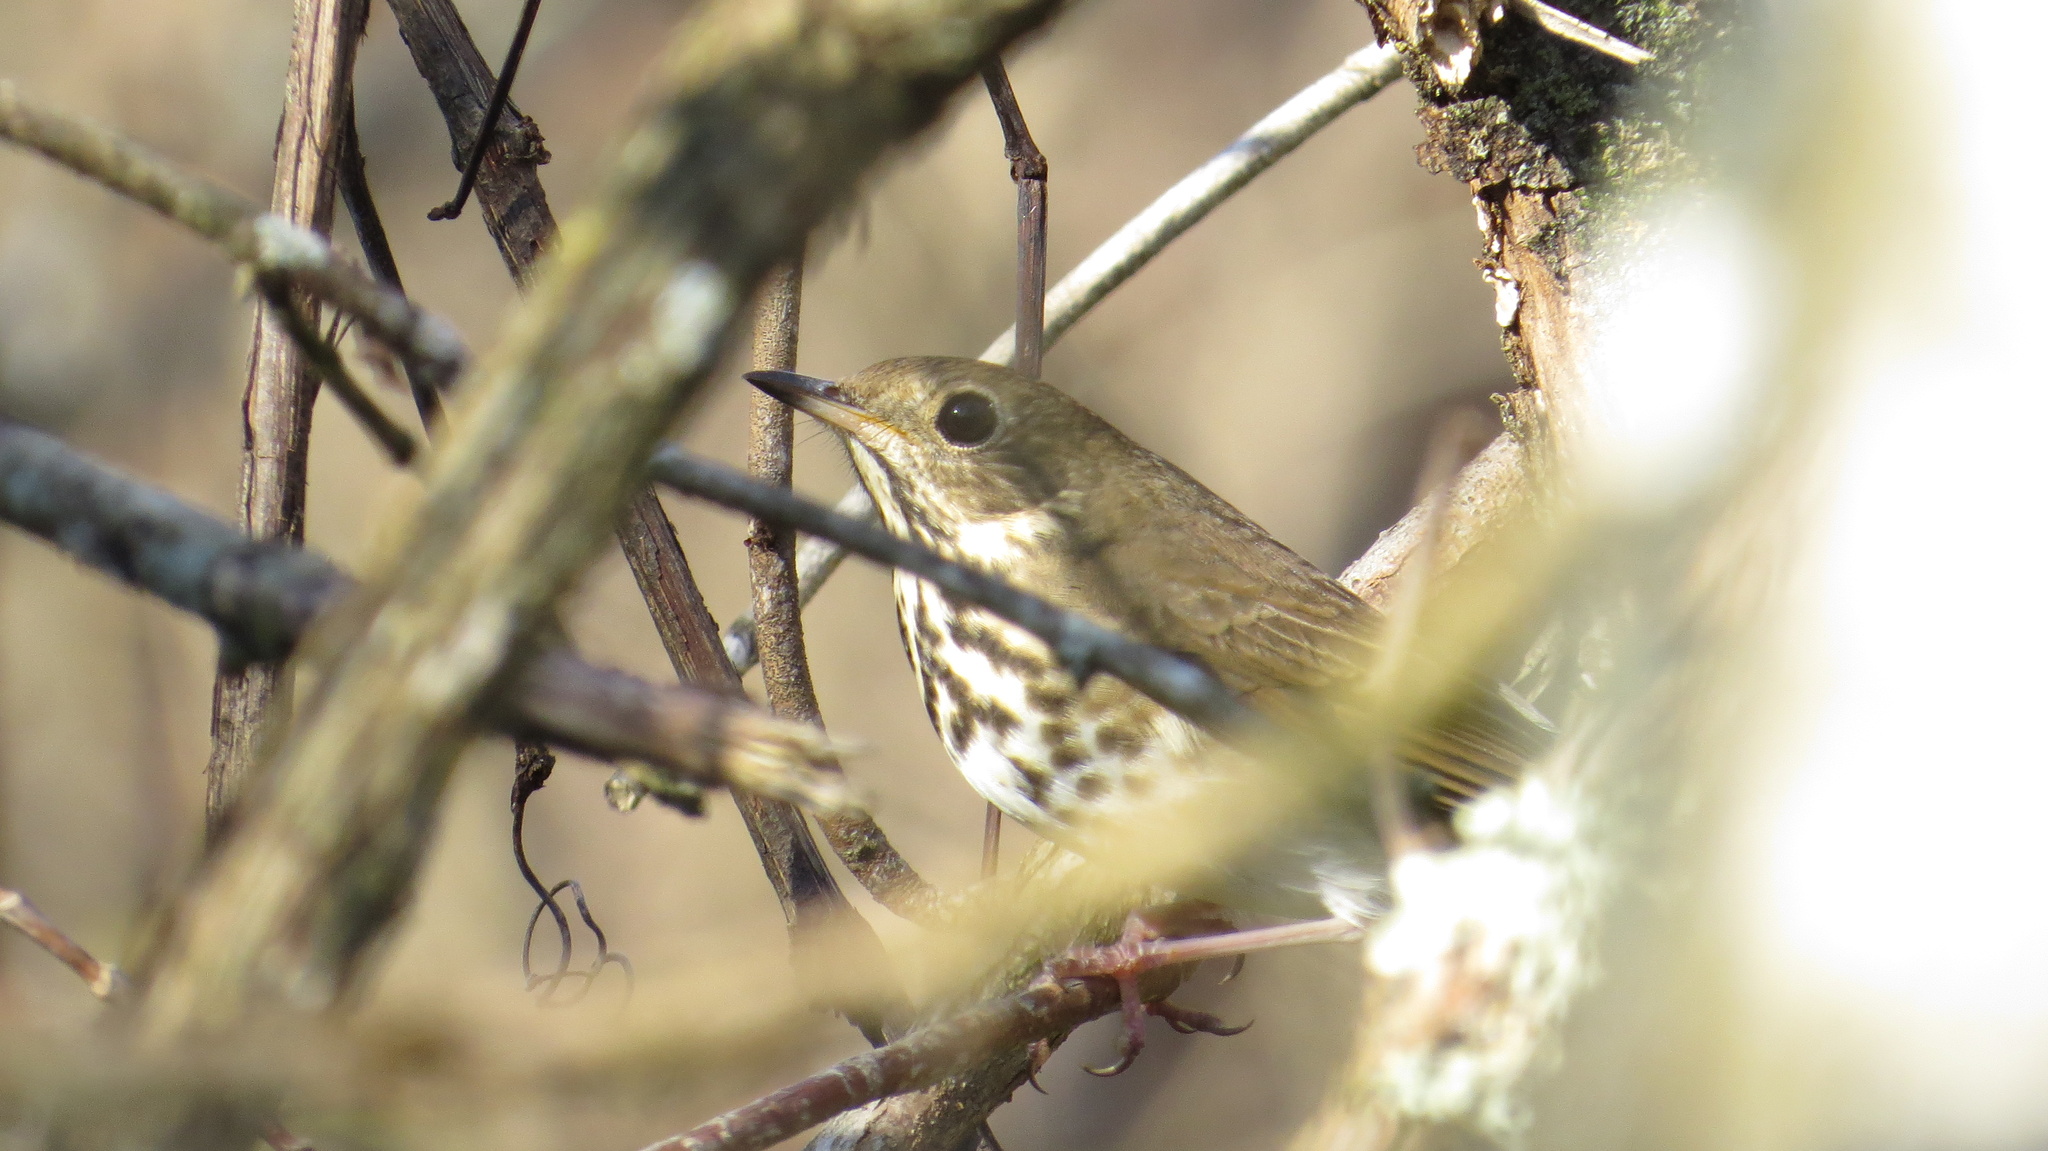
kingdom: Animalia
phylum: Chordata
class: Aves
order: Passeriformes
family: Turdidae
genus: Catharus
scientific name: Catharus guttatus
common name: Hermit thrush
